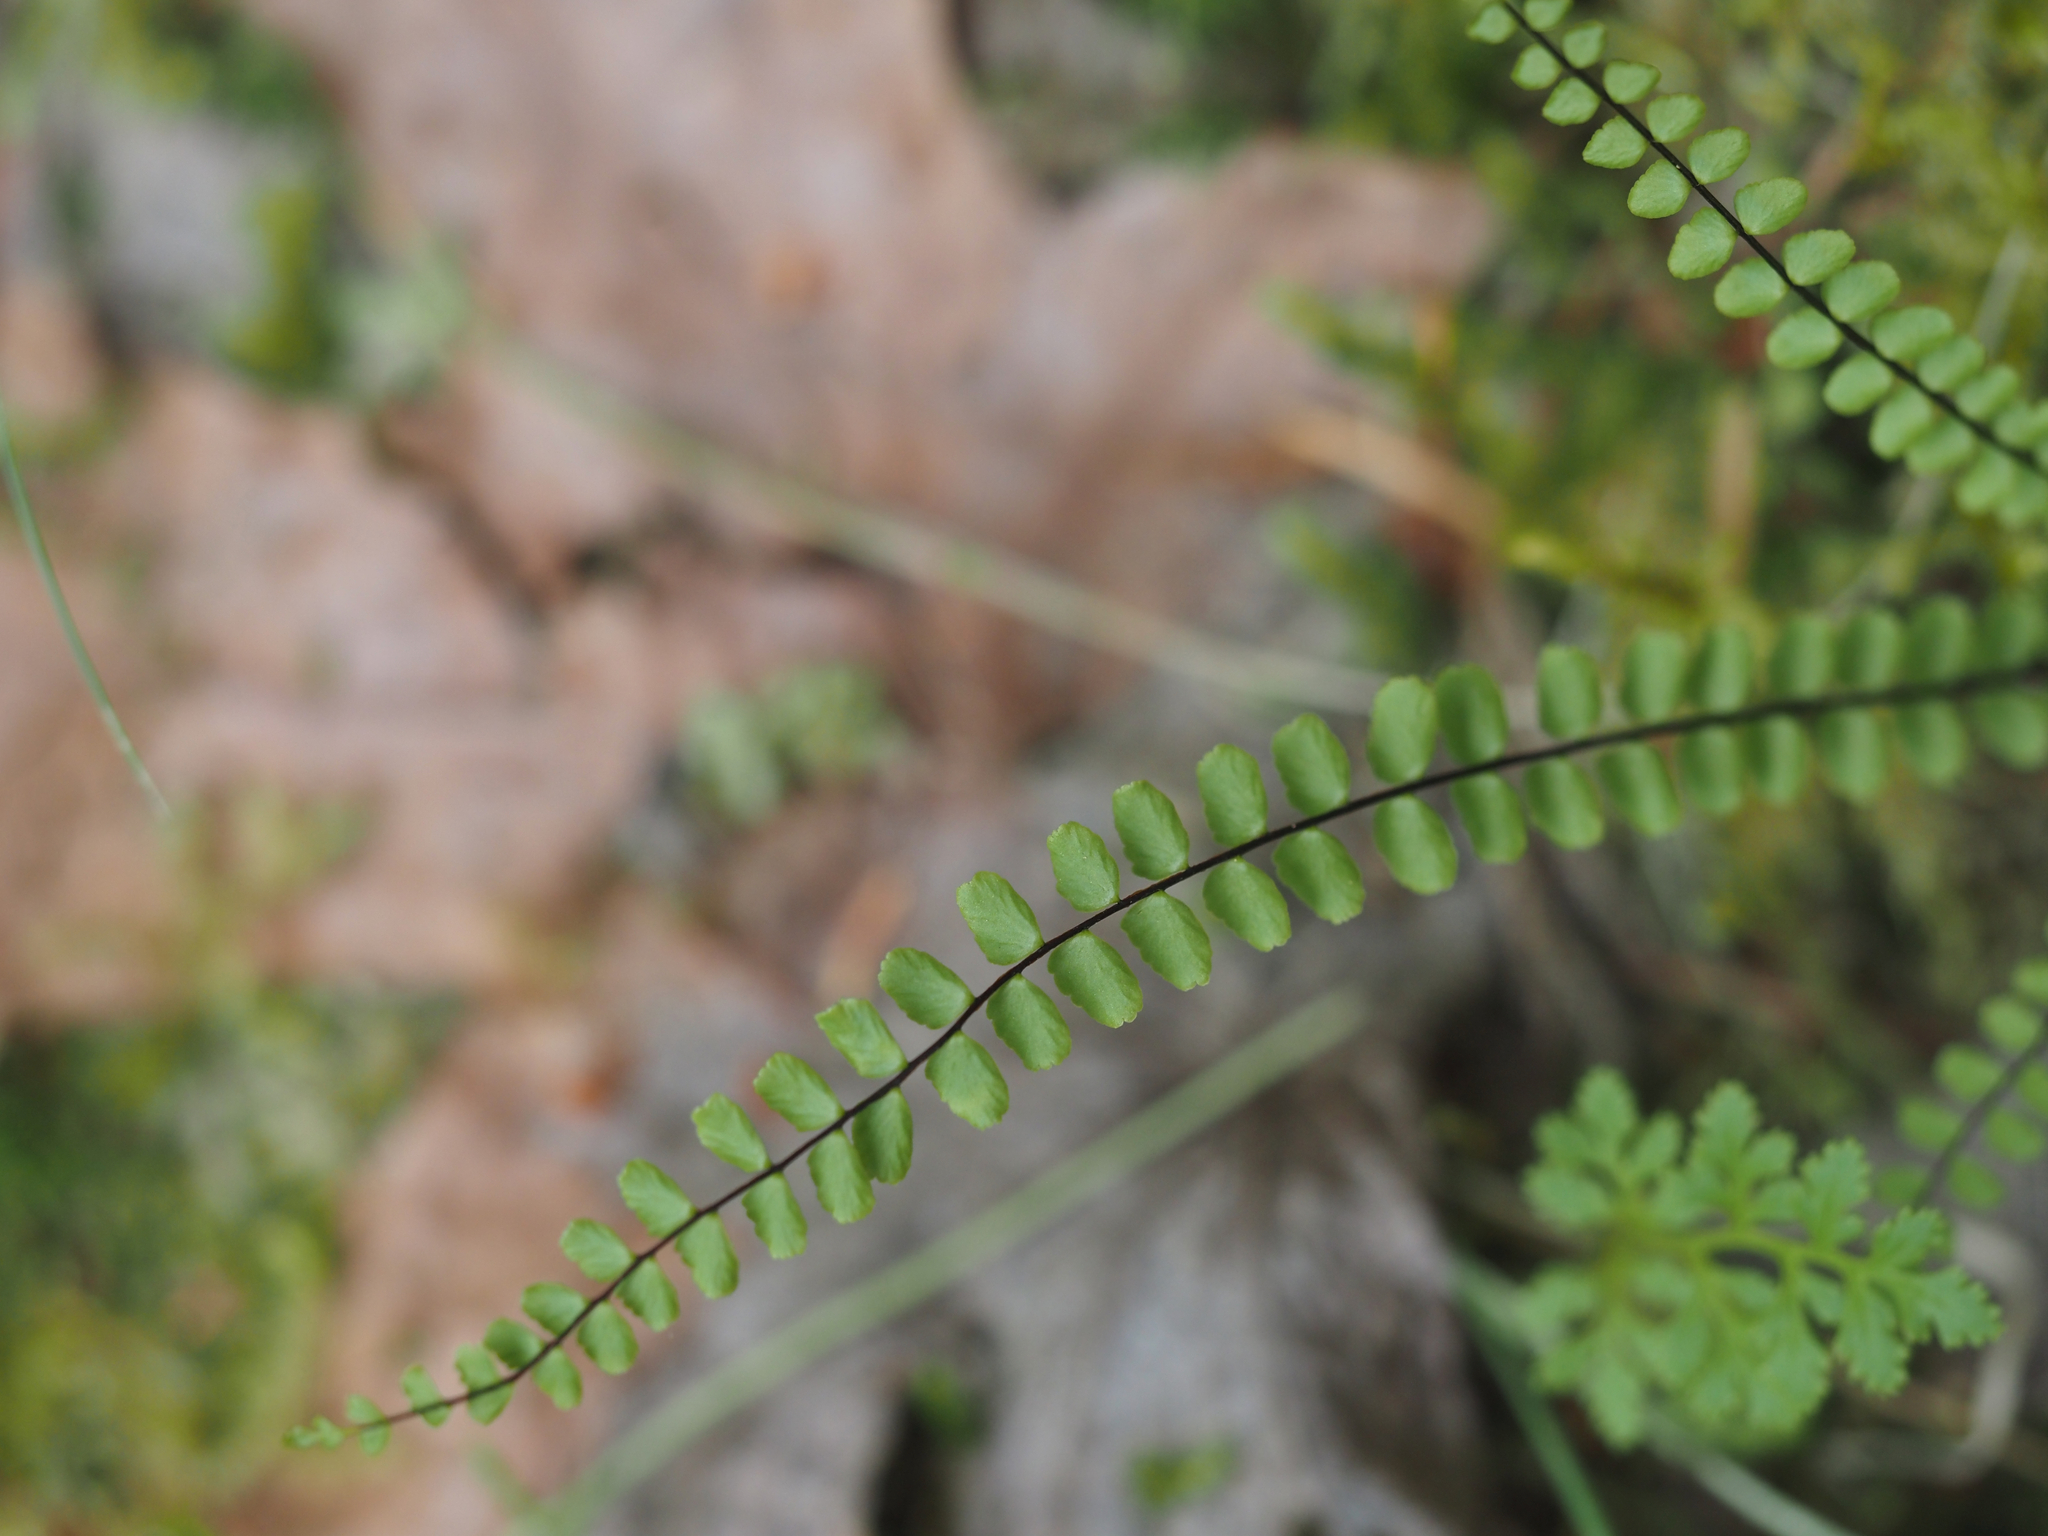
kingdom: Plantae
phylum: Tracheophyta
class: Polypodiopsida
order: Polypodiales
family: Aspleniaceae
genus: Asplenium
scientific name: Asplenium trichomanes
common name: Maidenhair spleenwort
